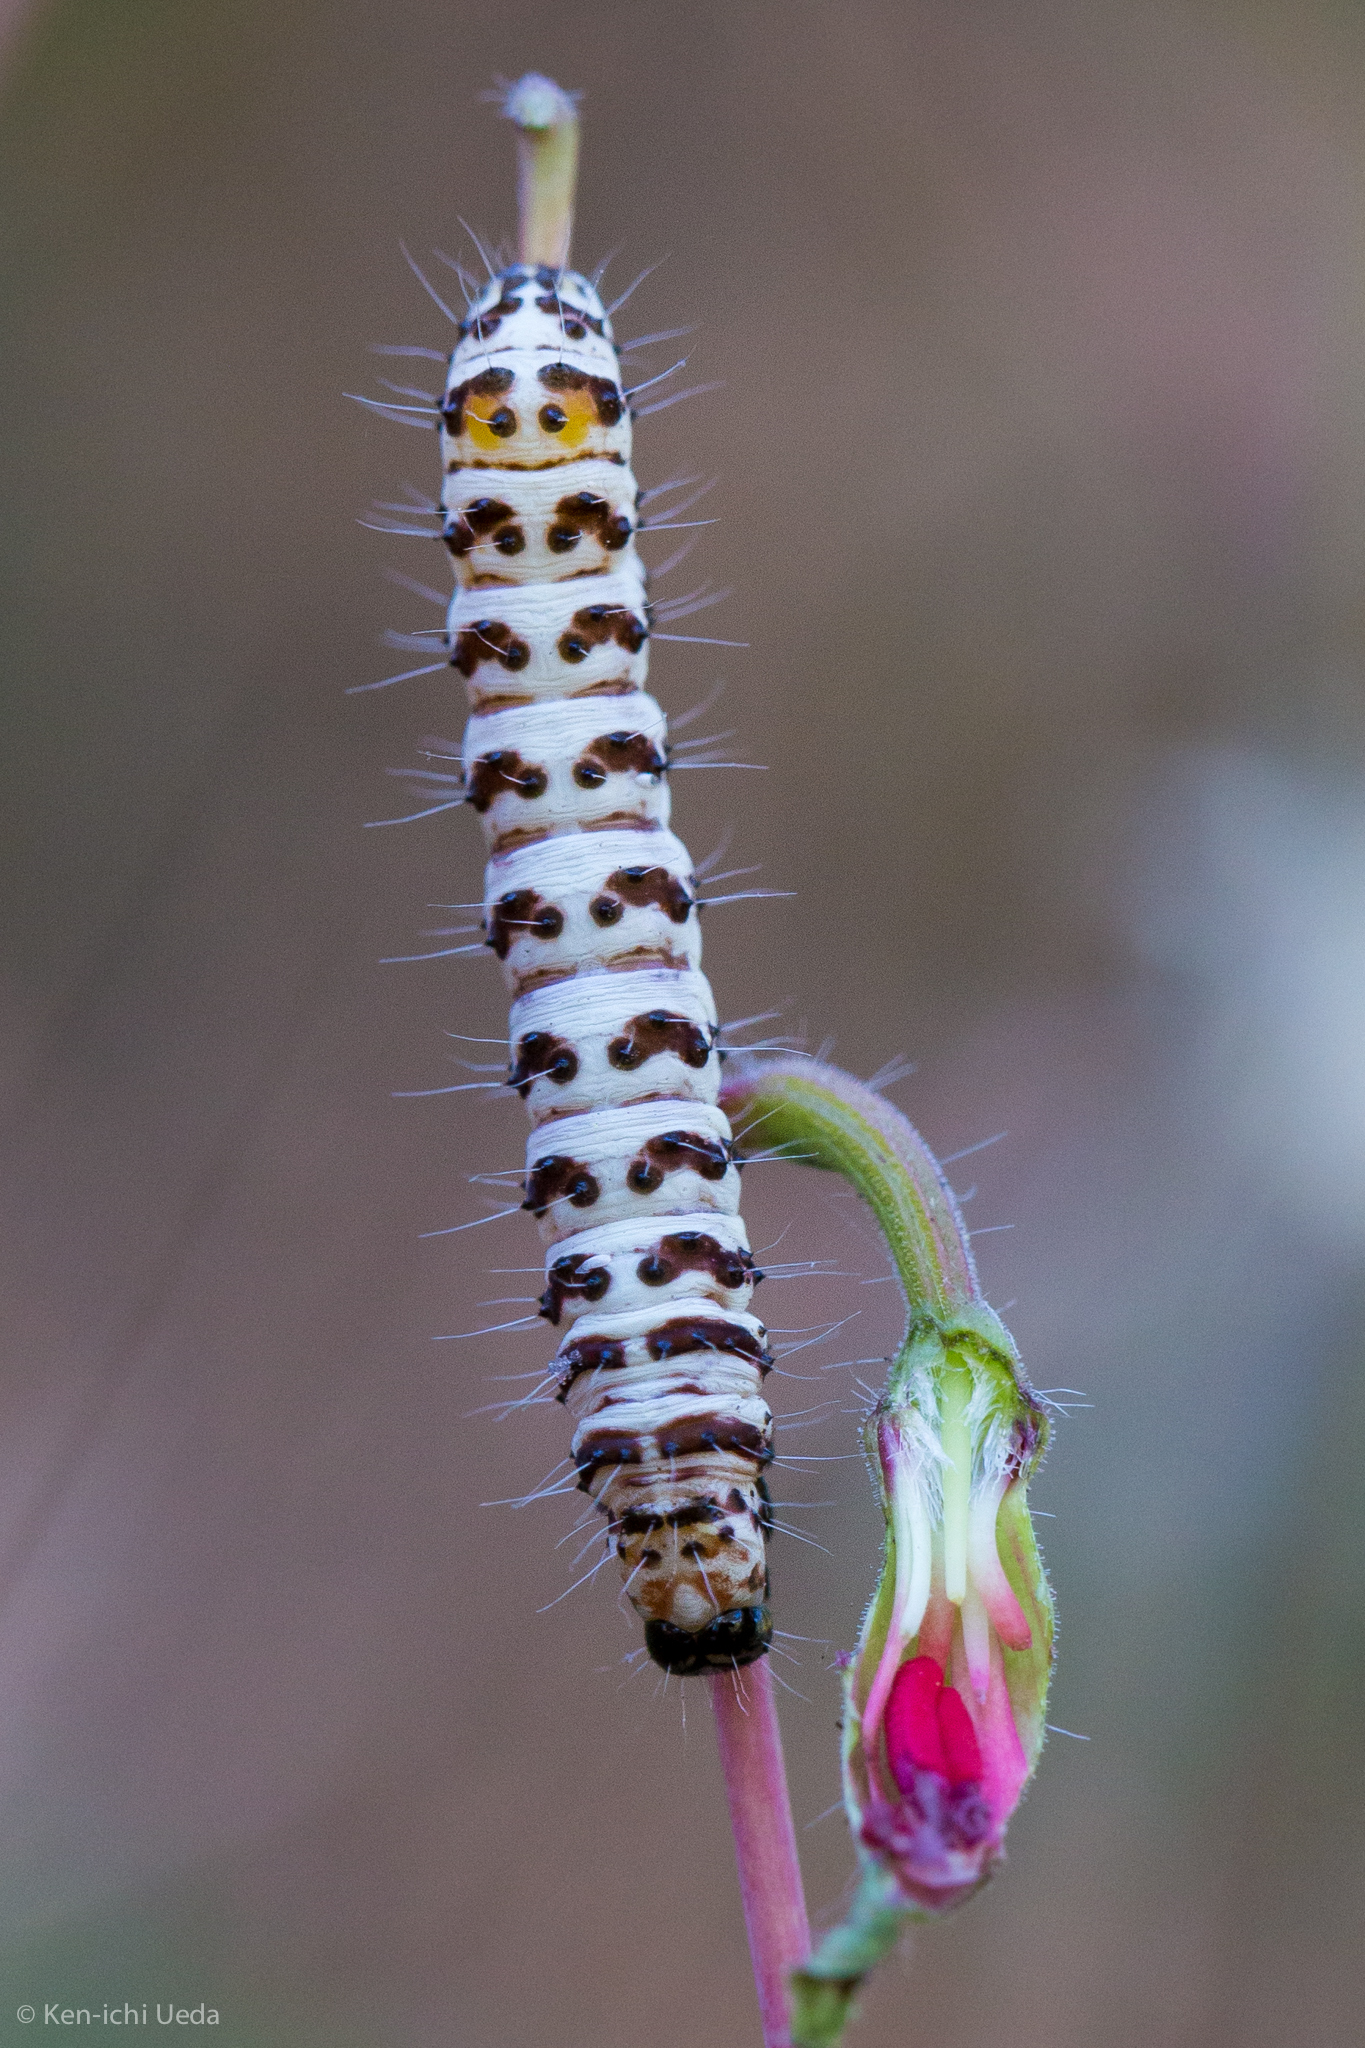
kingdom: Animalia
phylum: Arthropoda
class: Insecta
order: Lepidoptera
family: Noctuidae
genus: Alypia
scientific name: Alypia mariposa
